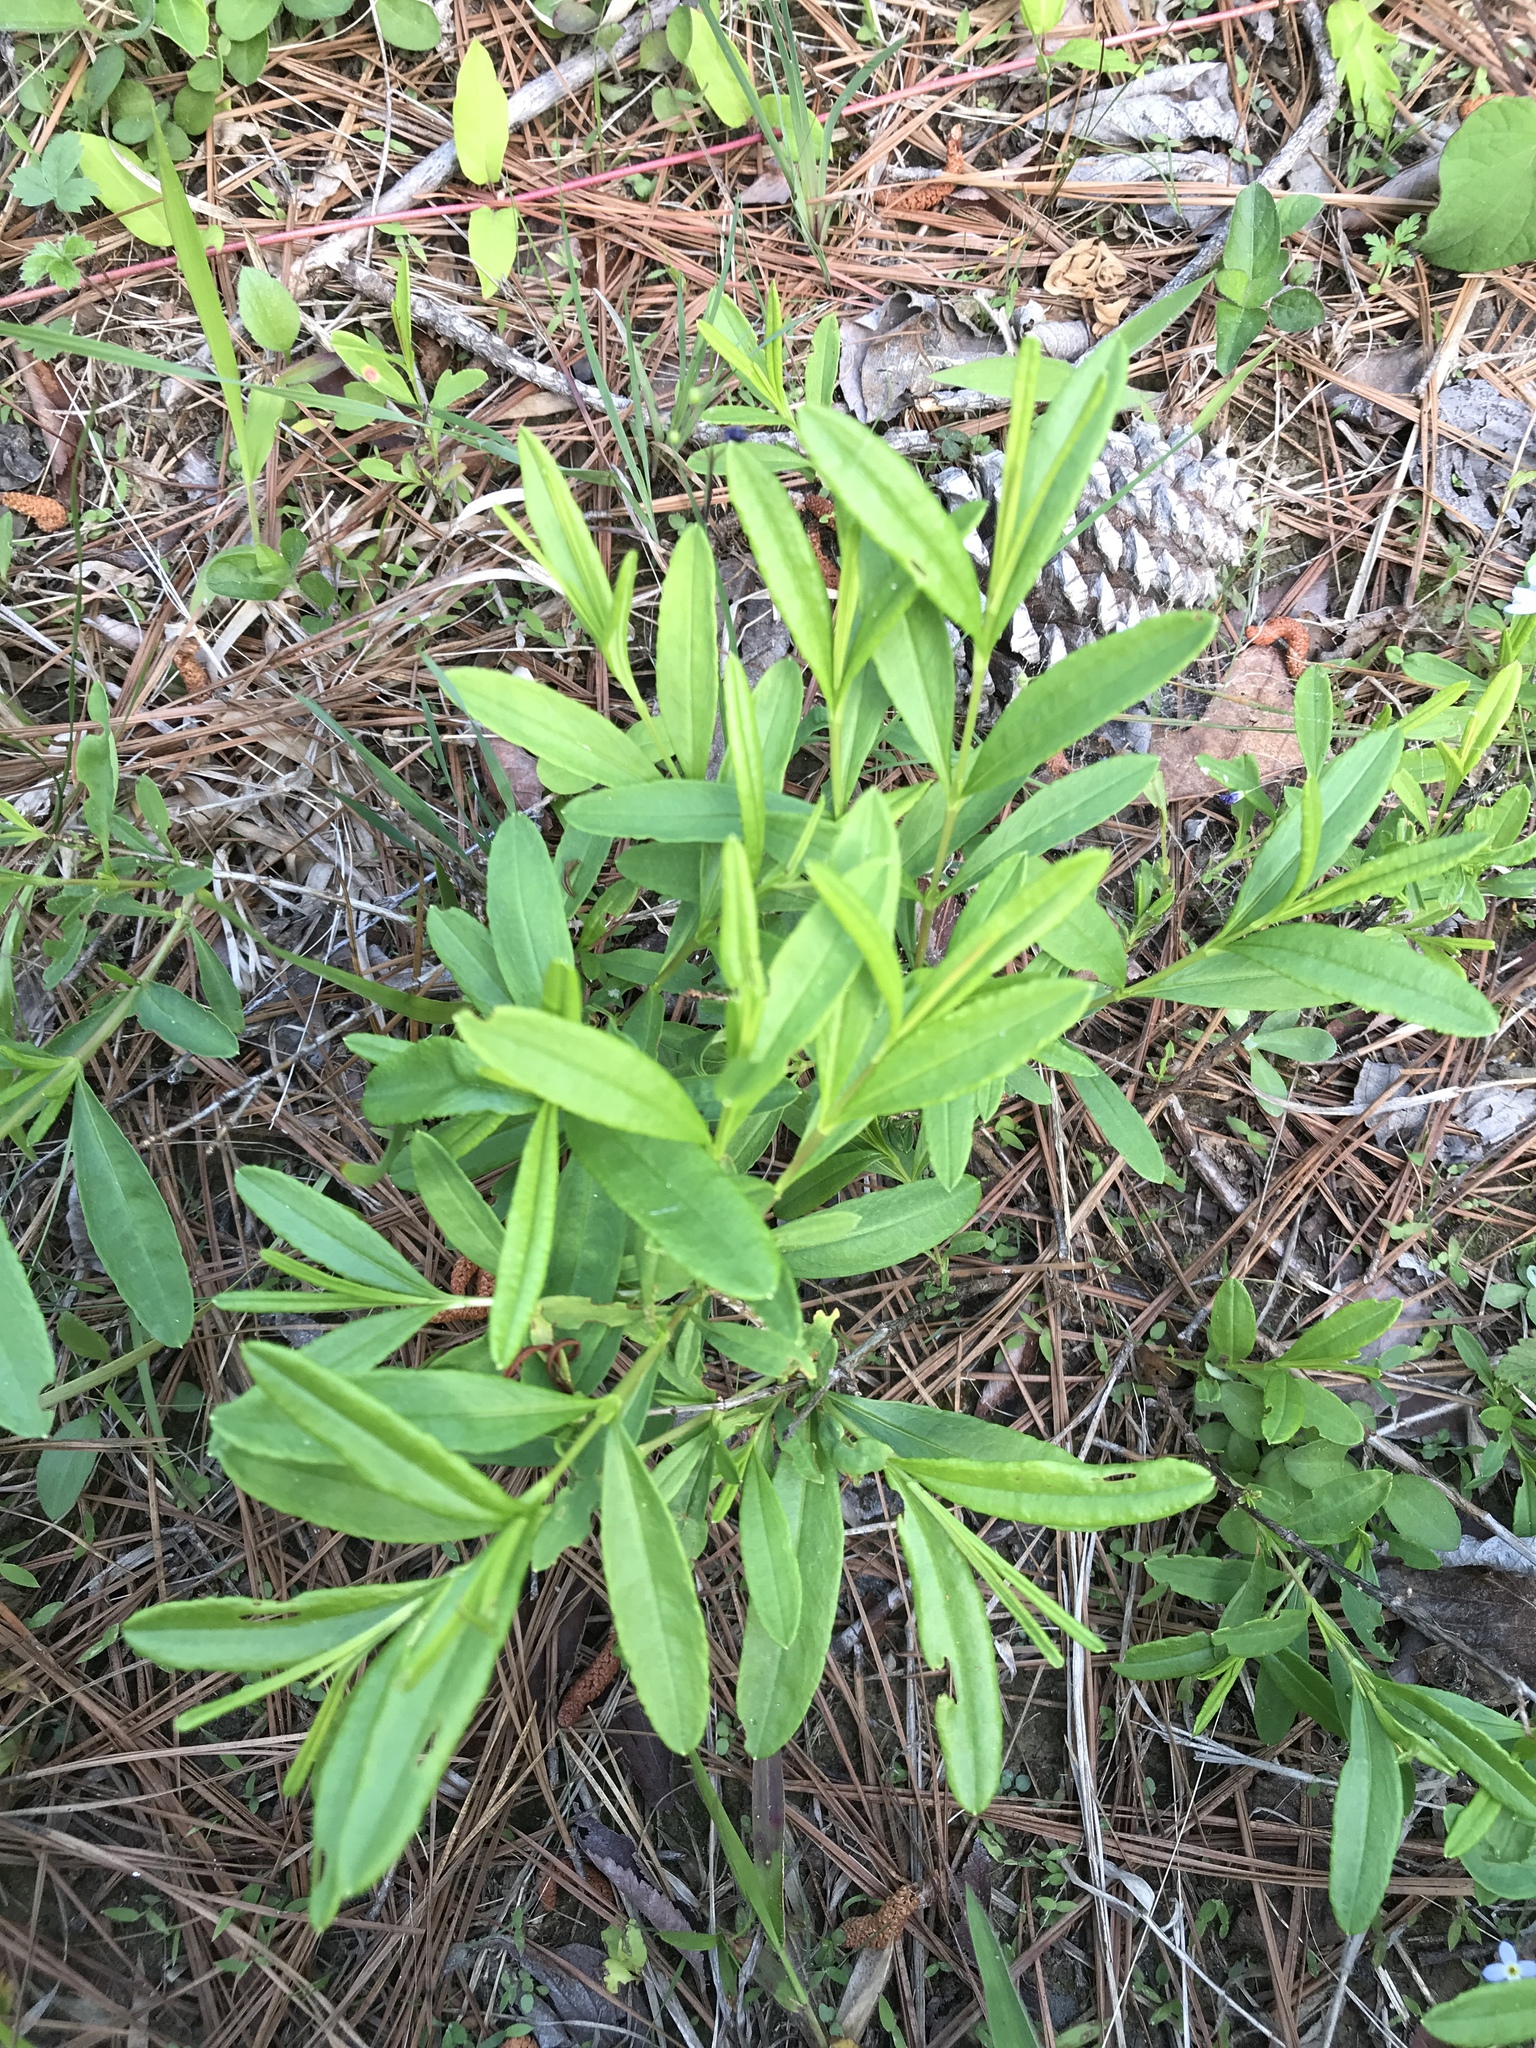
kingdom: Plantae
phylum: Tracheophyta
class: Magnoliopsida
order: Malpighiales
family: Hypericaceae
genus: Hypericum
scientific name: Hypericum densiflorum
